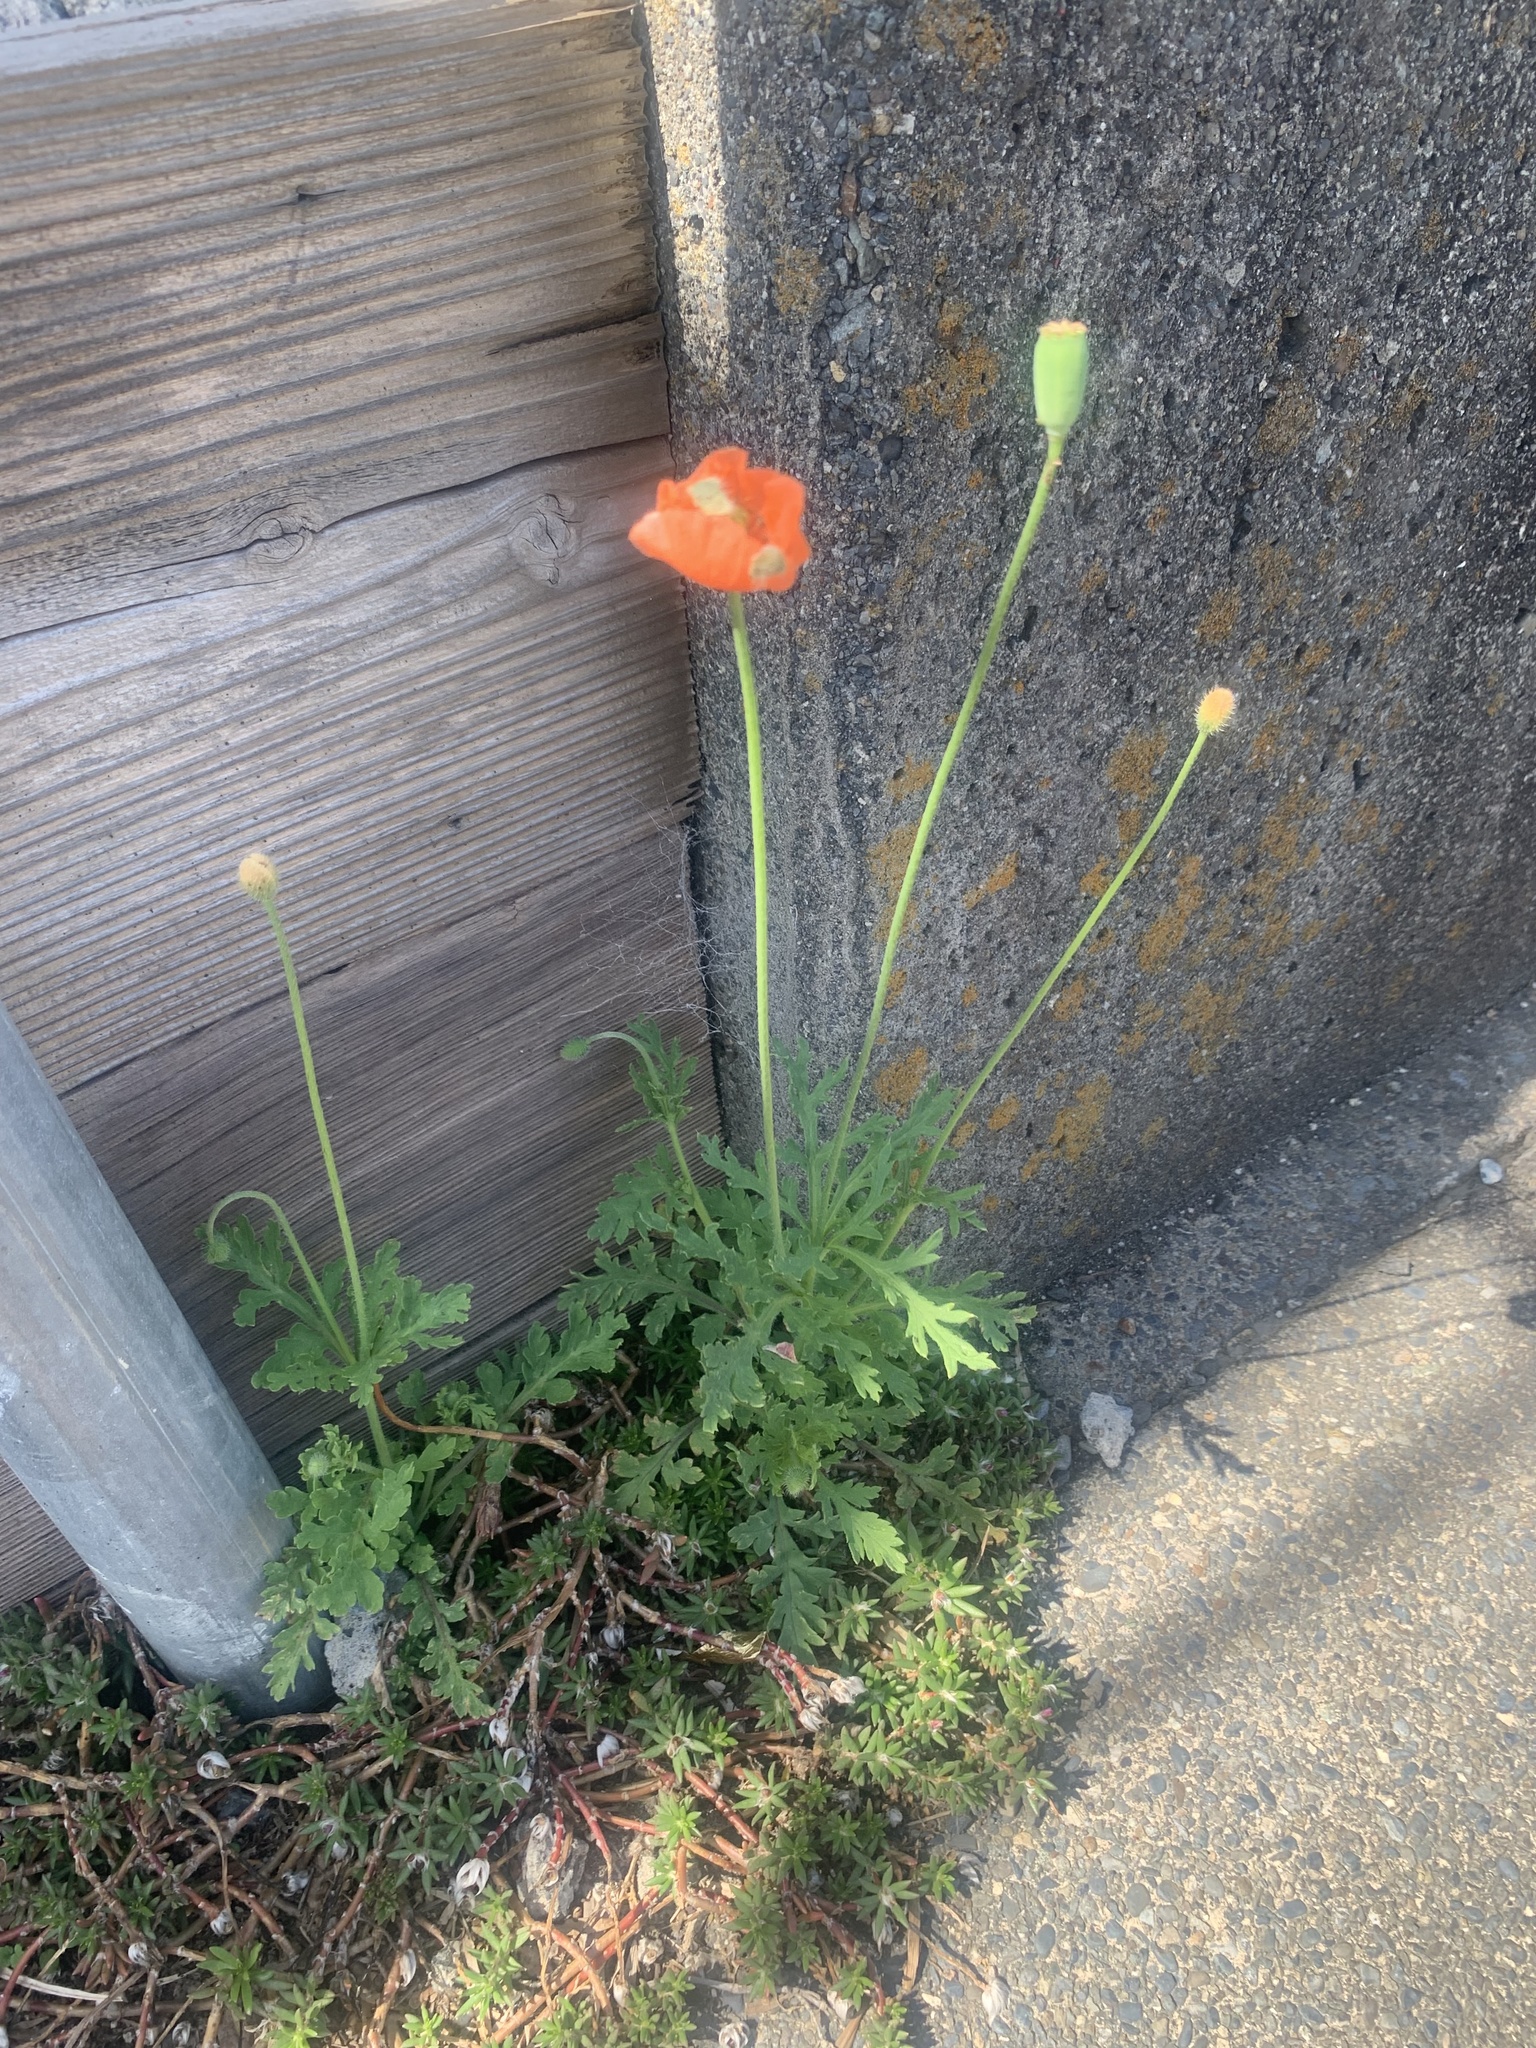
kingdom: Plantae
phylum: Tracheophyta
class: Magnoliopsida
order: Ranunculales
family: Papaveraceae
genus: Papaver
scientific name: Papaver dubium
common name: Long-headed poppy
